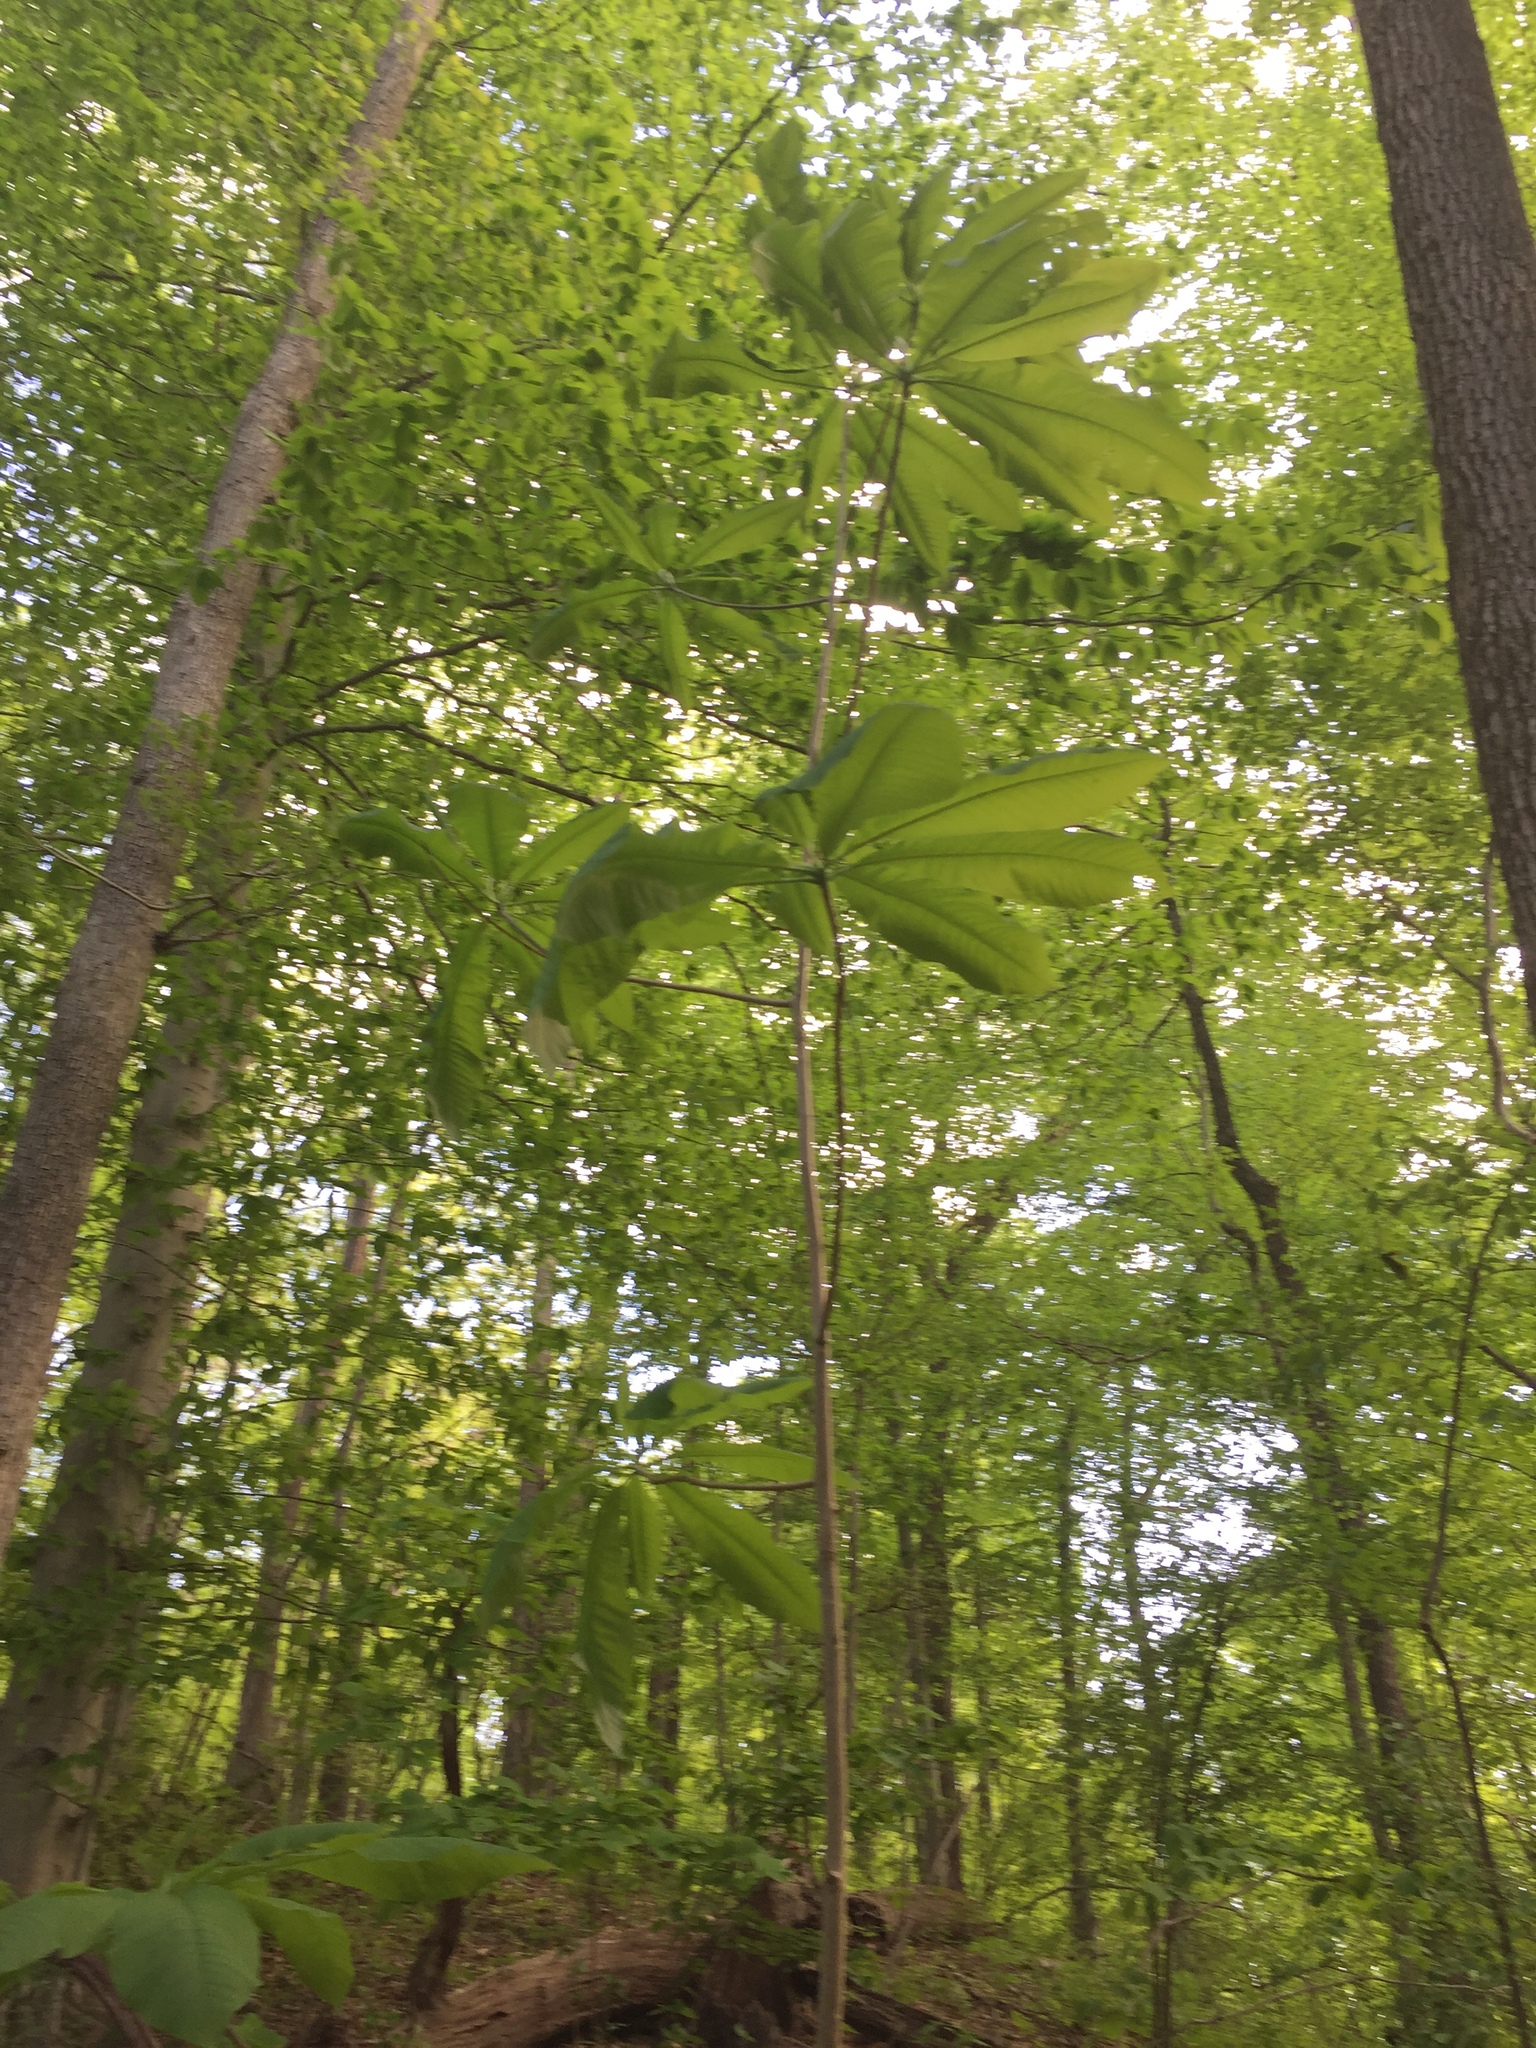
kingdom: Plantae
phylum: Tracheophyta
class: Magnoliopsida
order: Magnoliales
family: Magnoliaceae
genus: Magnolia
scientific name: Magnolia tripetala
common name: Umbrella magnolia
